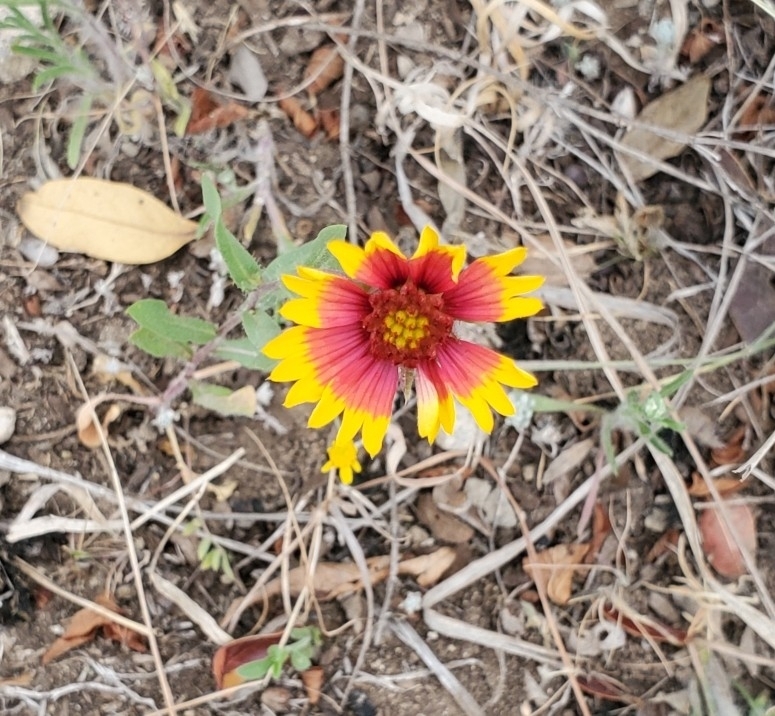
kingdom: Plantae
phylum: Tracheophyta
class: Magnoliopsida
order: Asterales
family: Asteraceae
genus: Gaillardia
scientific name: Gaillardia pulchella
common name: Firewheel
